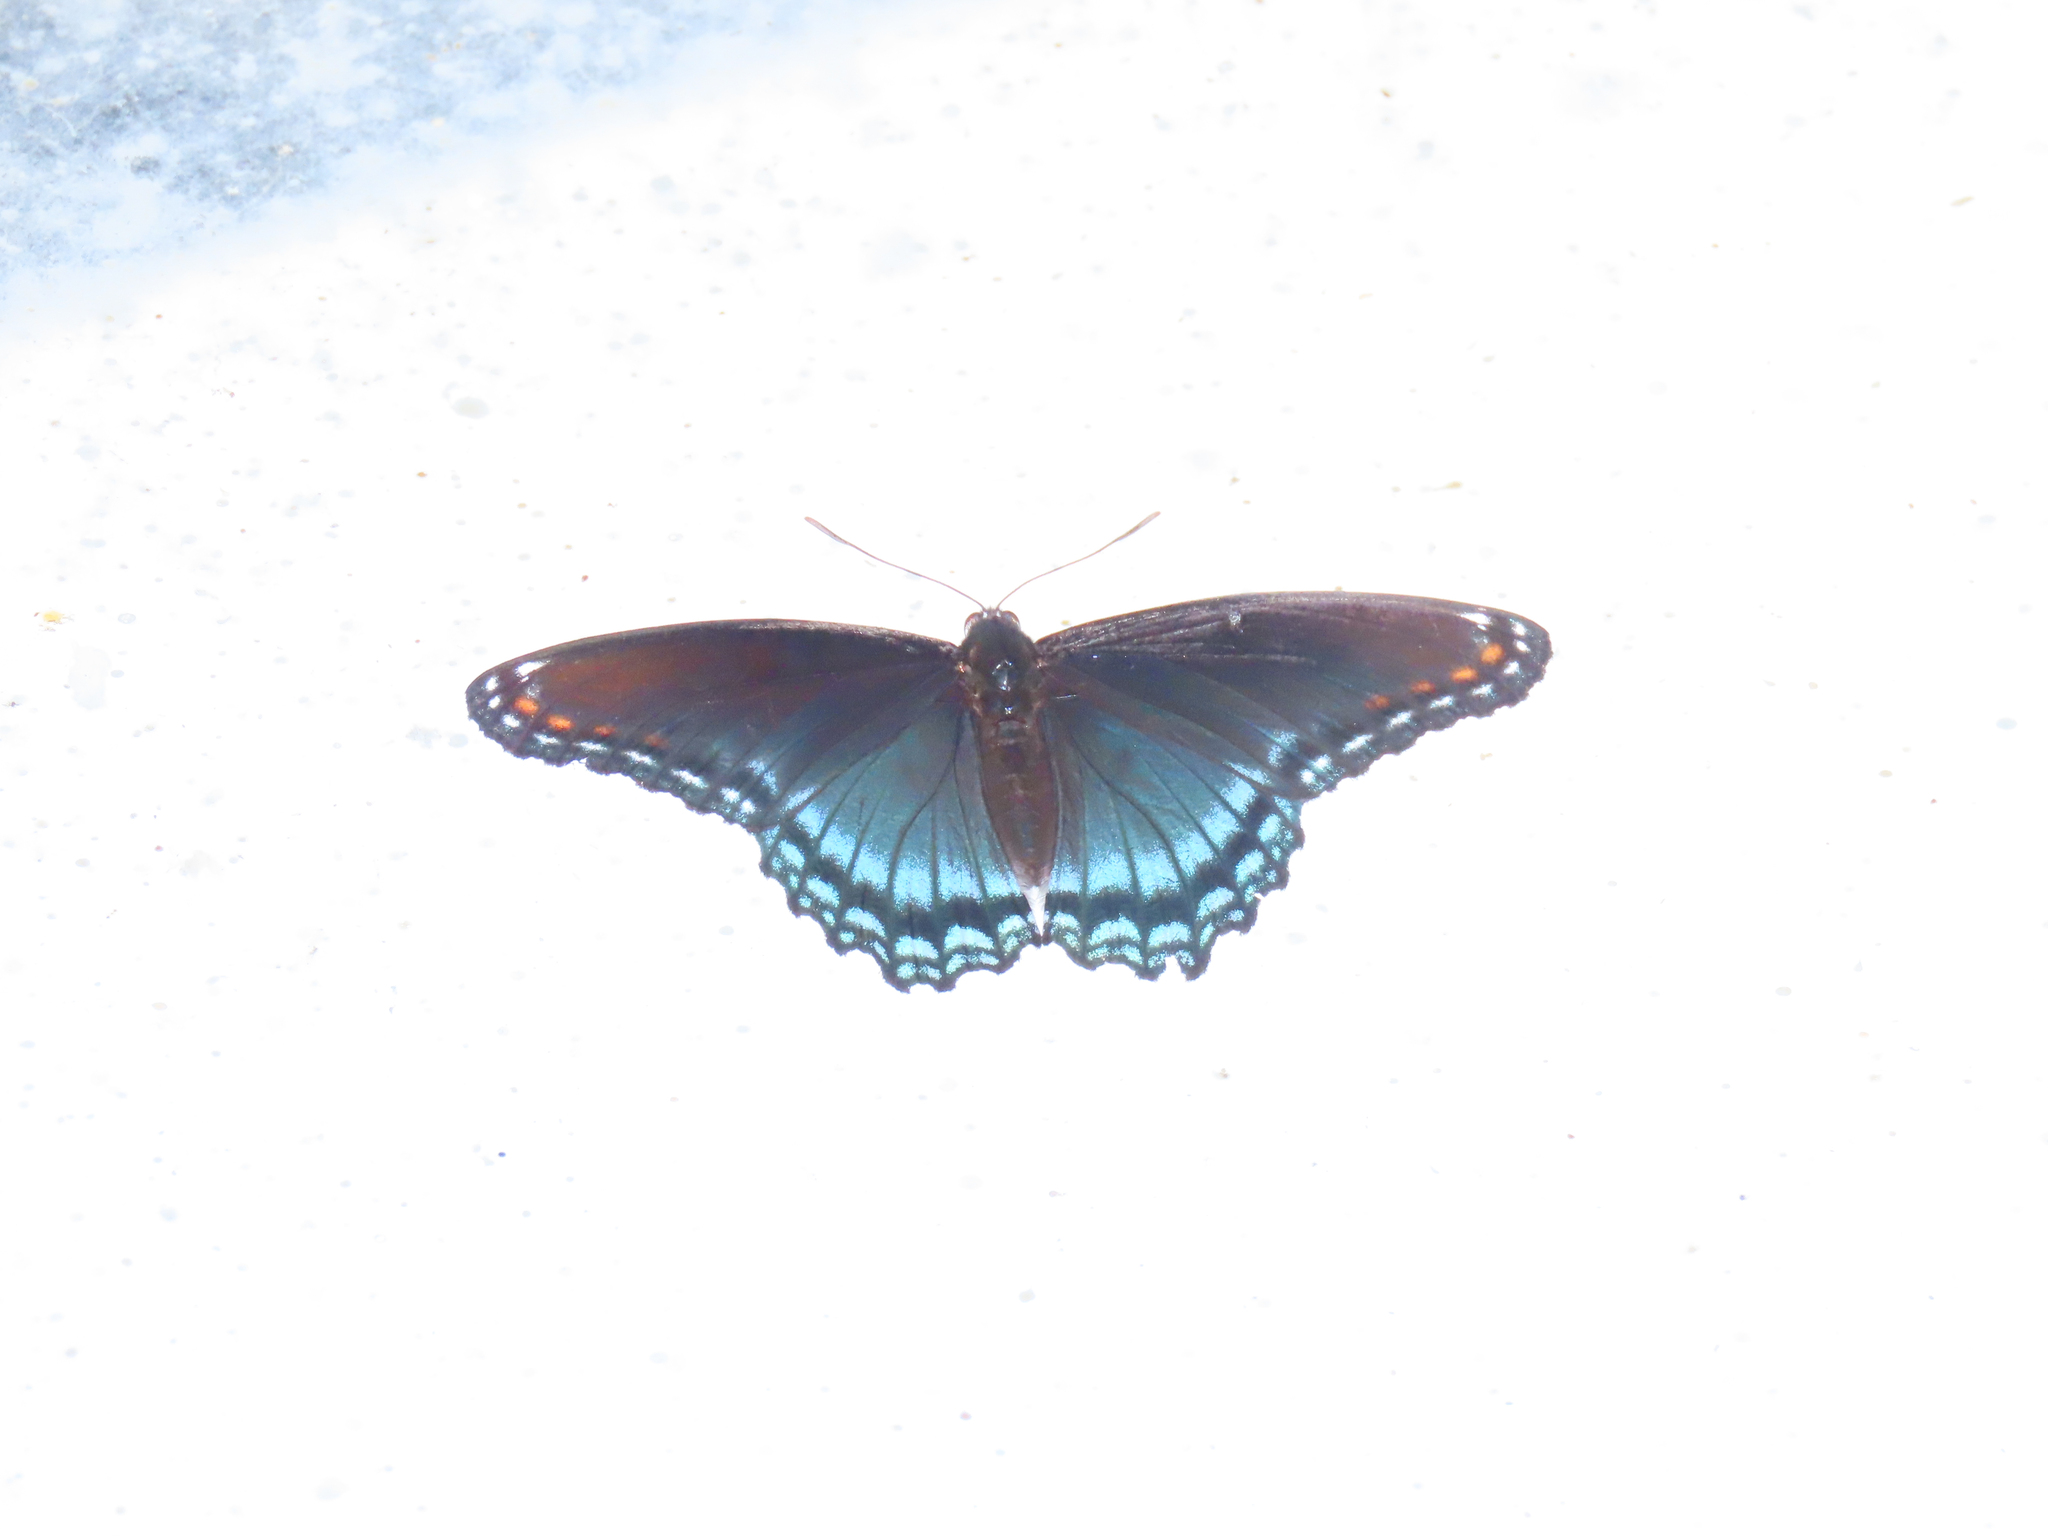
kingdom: Animalia
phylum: Arthropoda
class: Insecta
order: Lepidoptera
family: Nymphalidae
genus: Limenitis
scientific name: Limenitis astyanax
